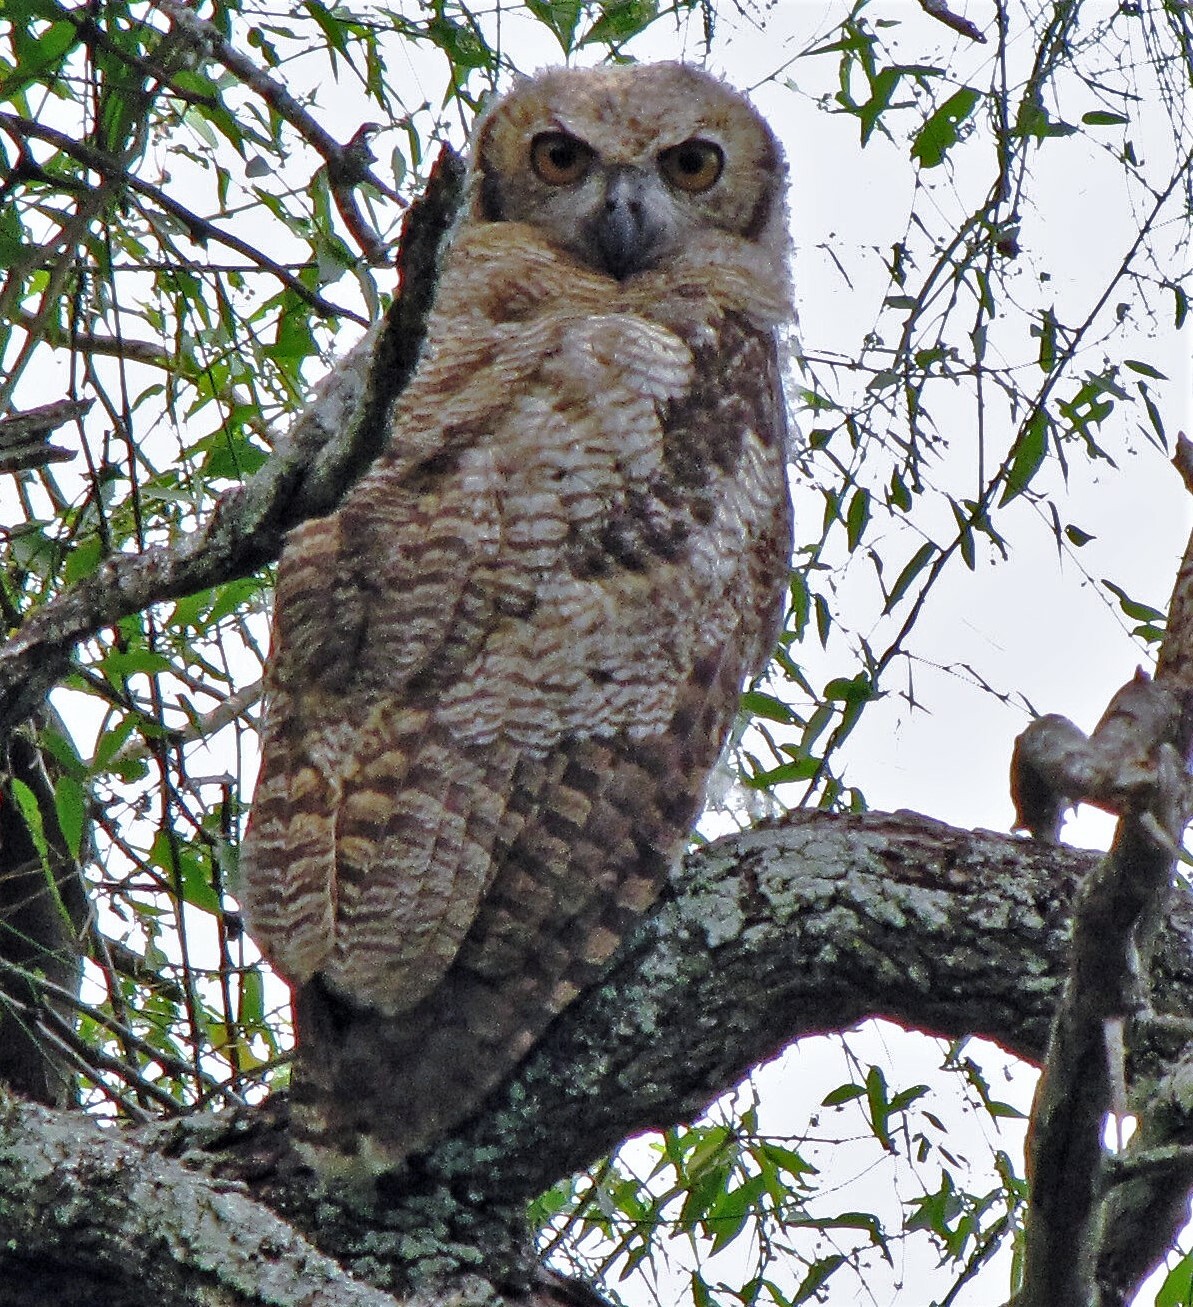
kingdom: Animalia
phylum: Chordata
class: Aves
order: Strigiformes
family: Strigidae
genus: Bubo
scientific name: Bubo virginianus
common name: Great horned owl
